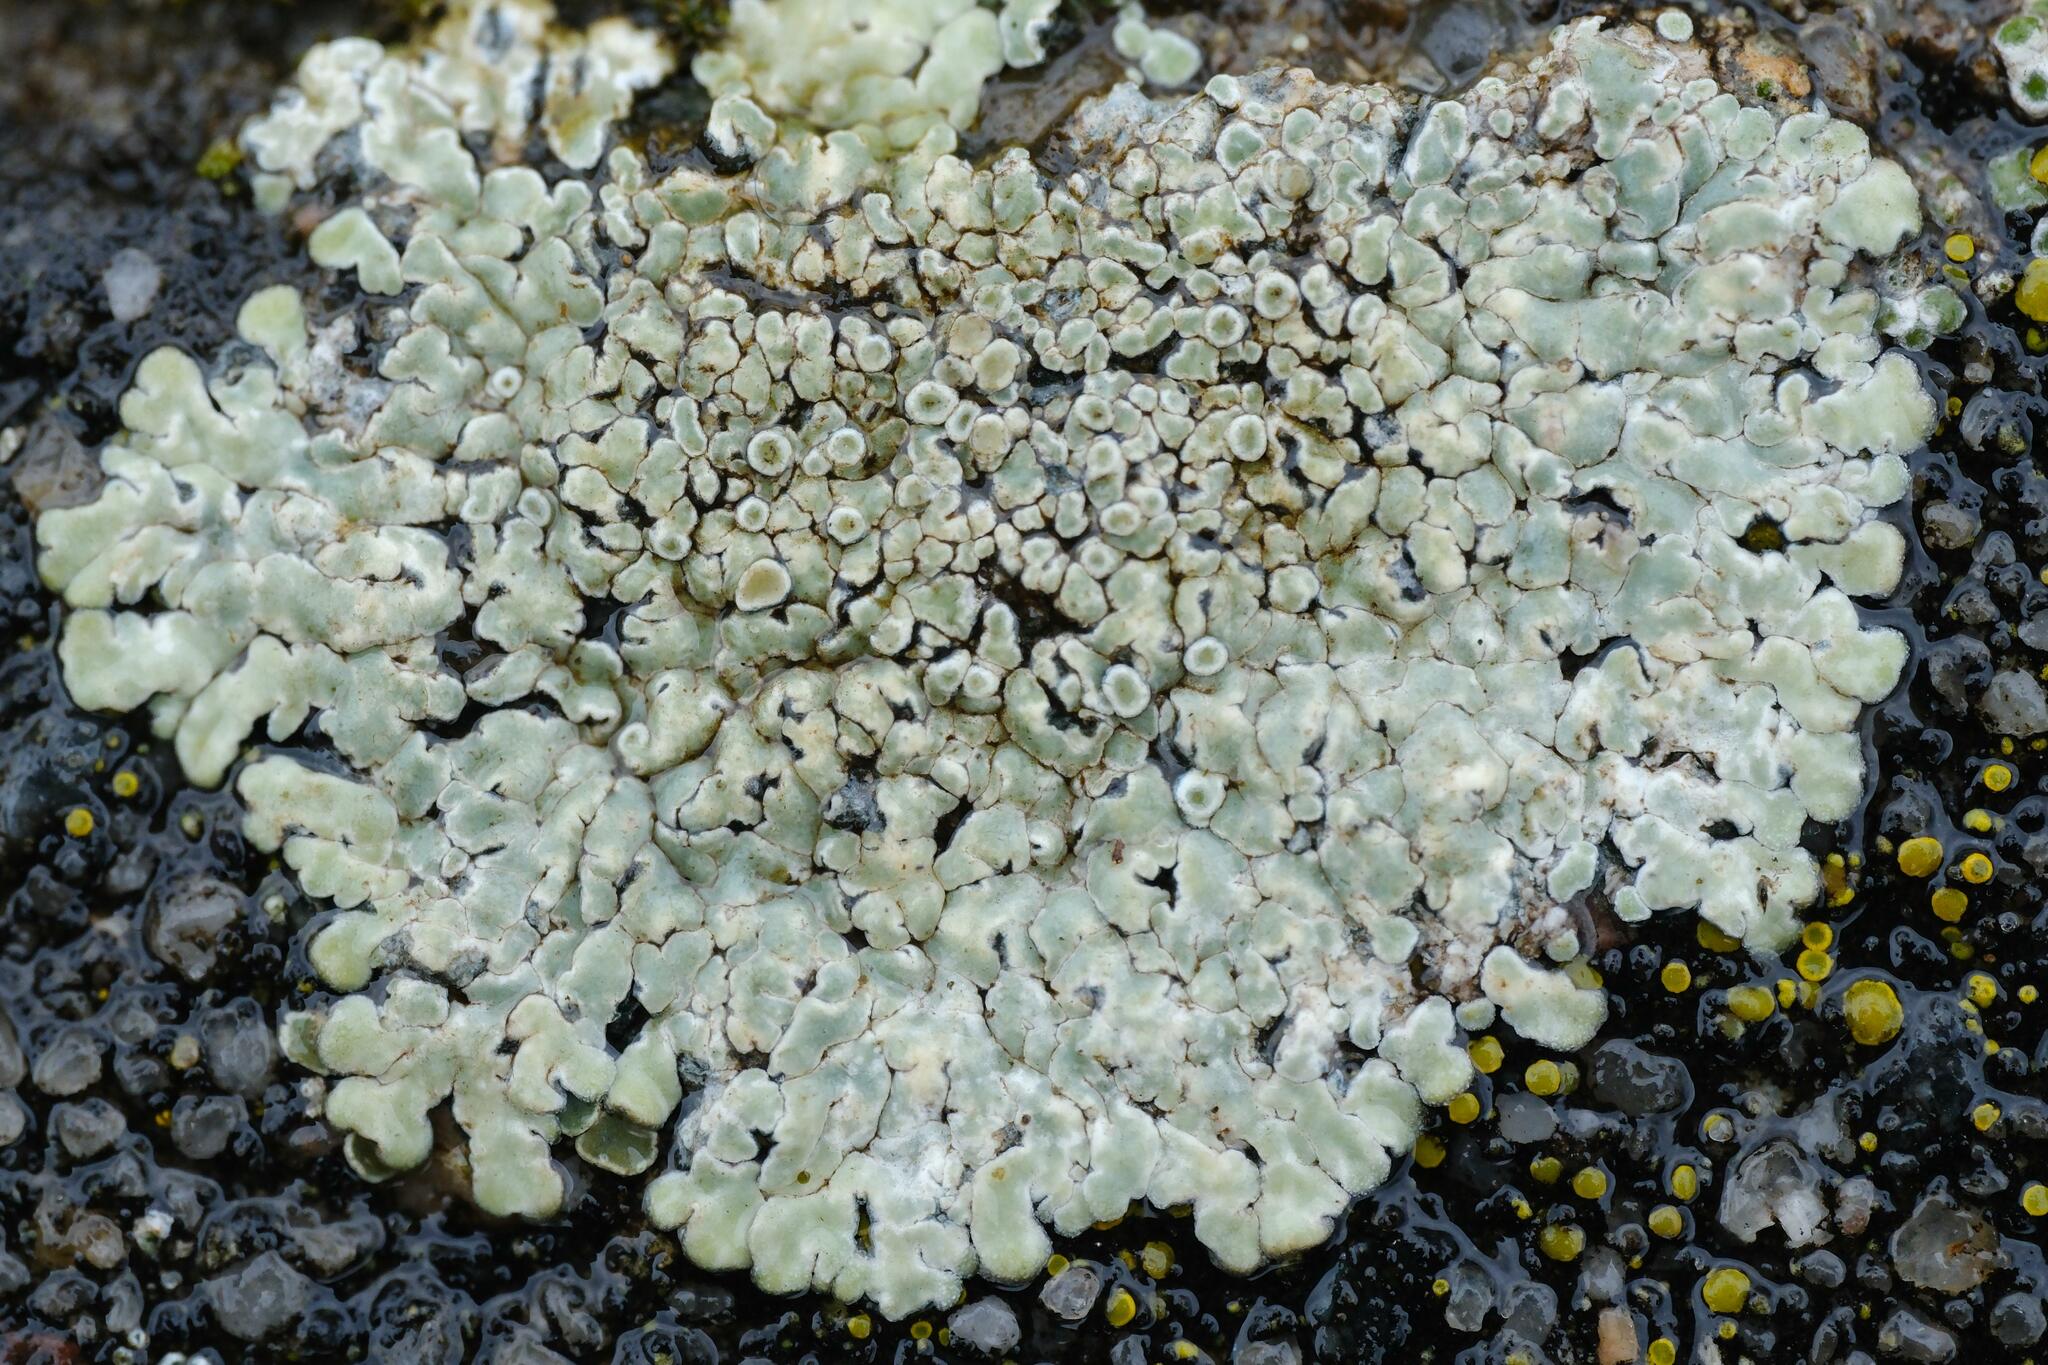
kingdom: Fungi
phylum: Ascomycota
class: Lecanoromycetes
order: Lecanorales
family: Lecanoraceae
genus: Protoparmeliopsis
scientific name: Protoparmeliopsis muralis
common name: Stonewall rim lichen
